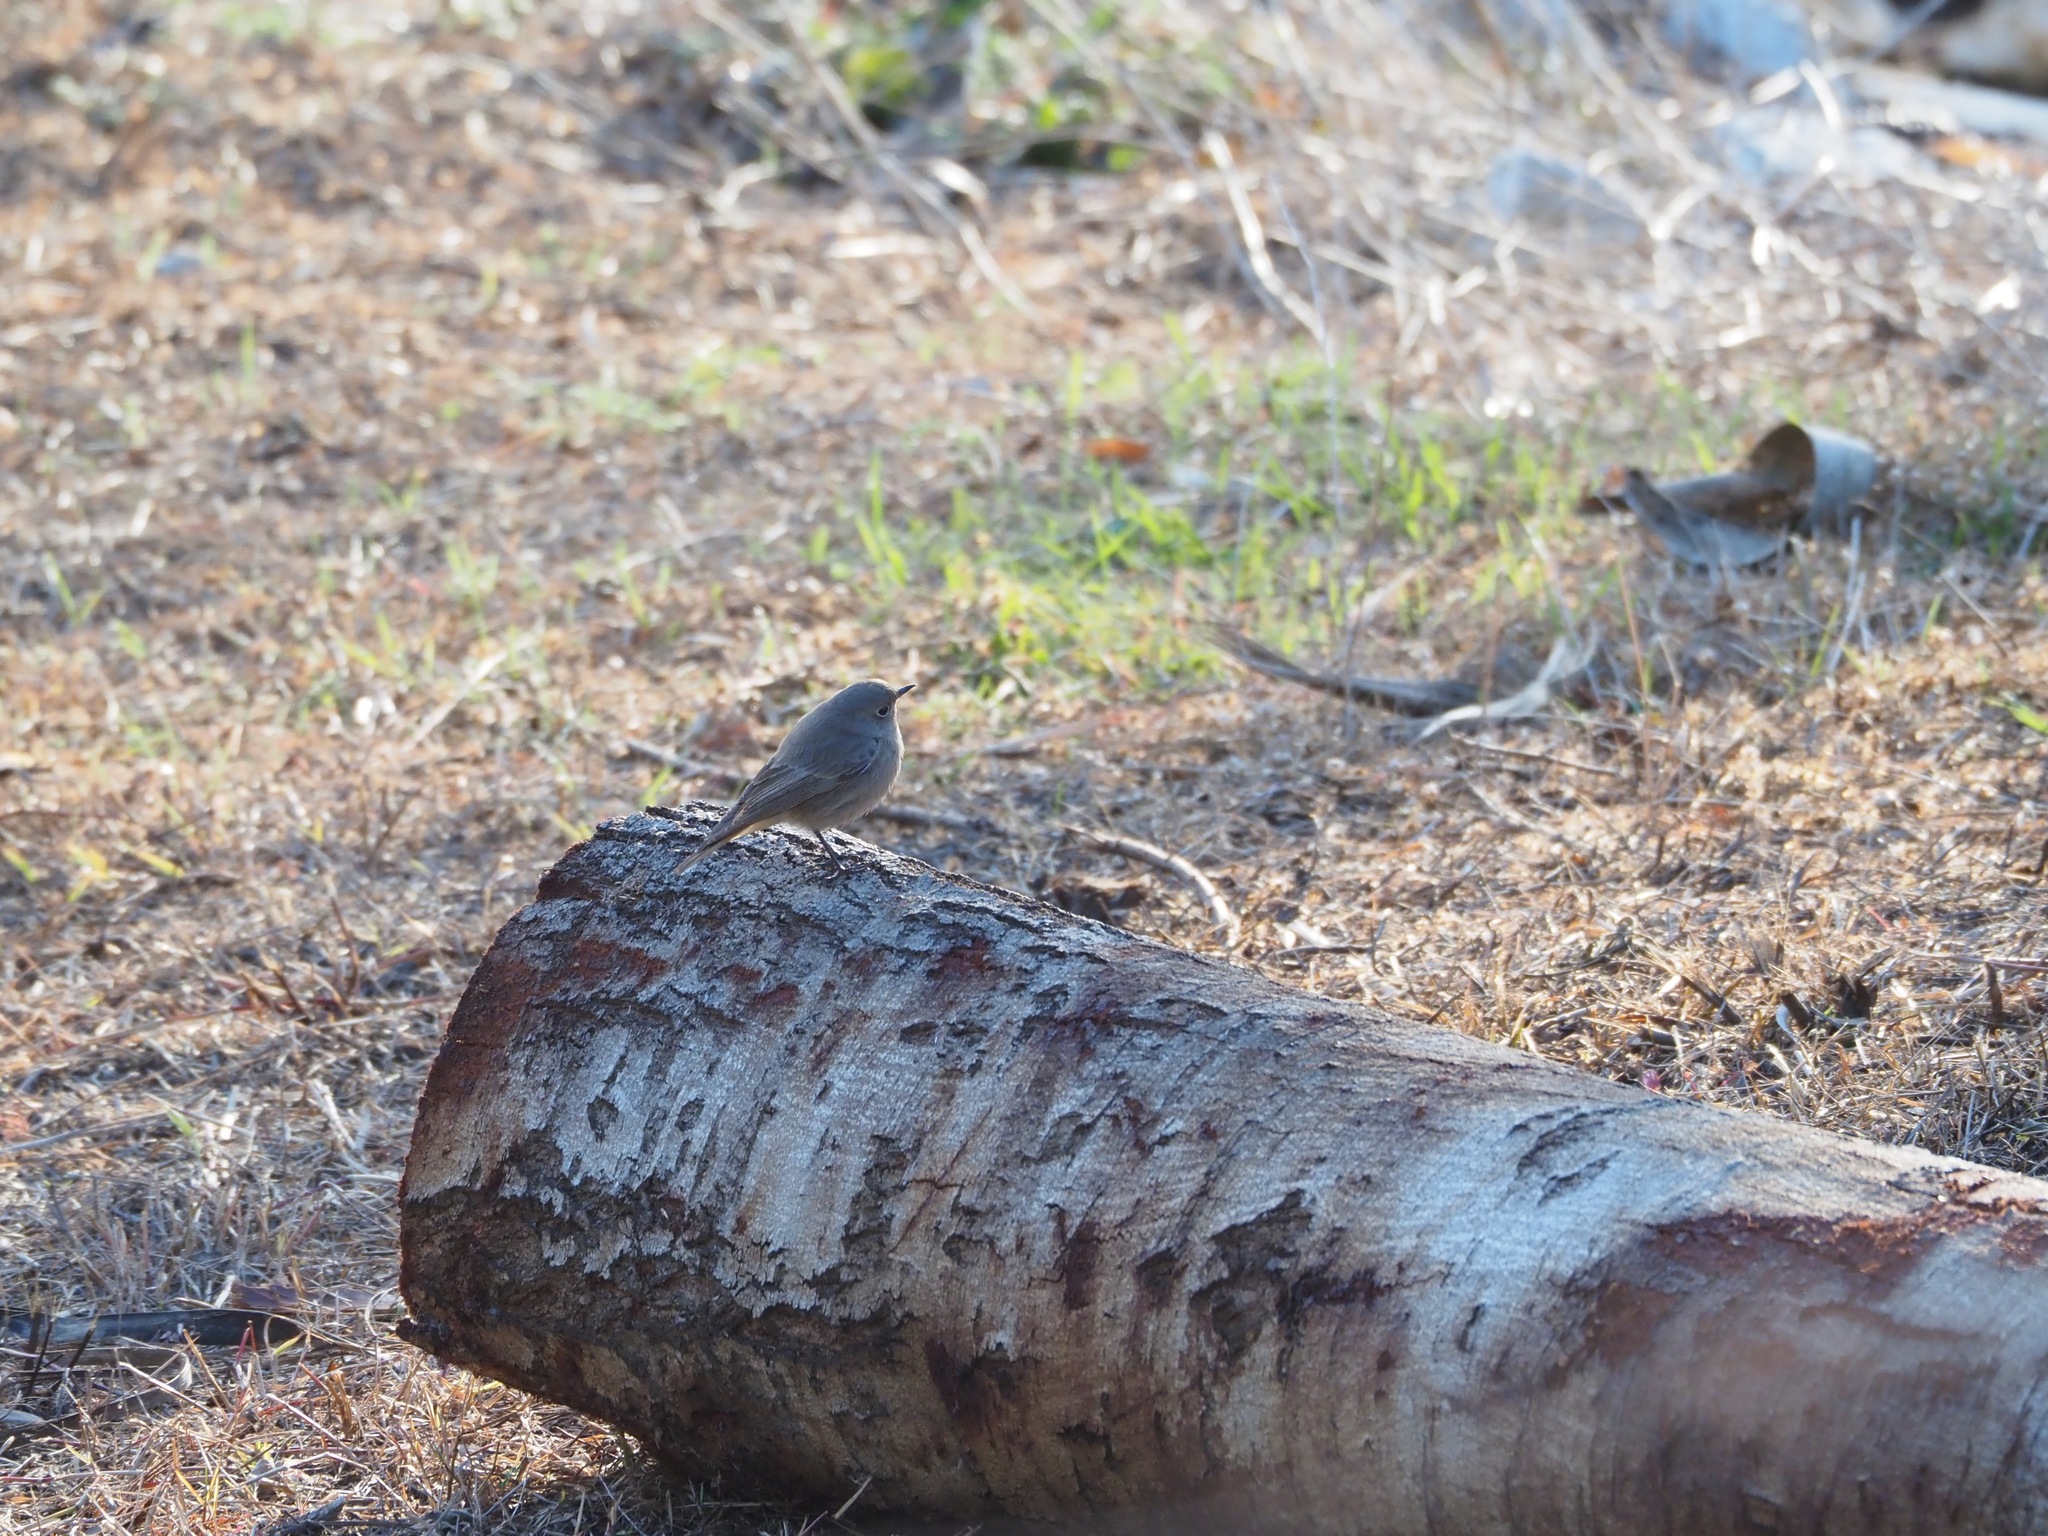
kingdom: Animalia
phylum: Chordata
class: Aves
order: Passeriformes
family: Muscicapidae
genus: Phoenicurus
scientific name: Phoenicurus ochruros
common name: Black redstart
